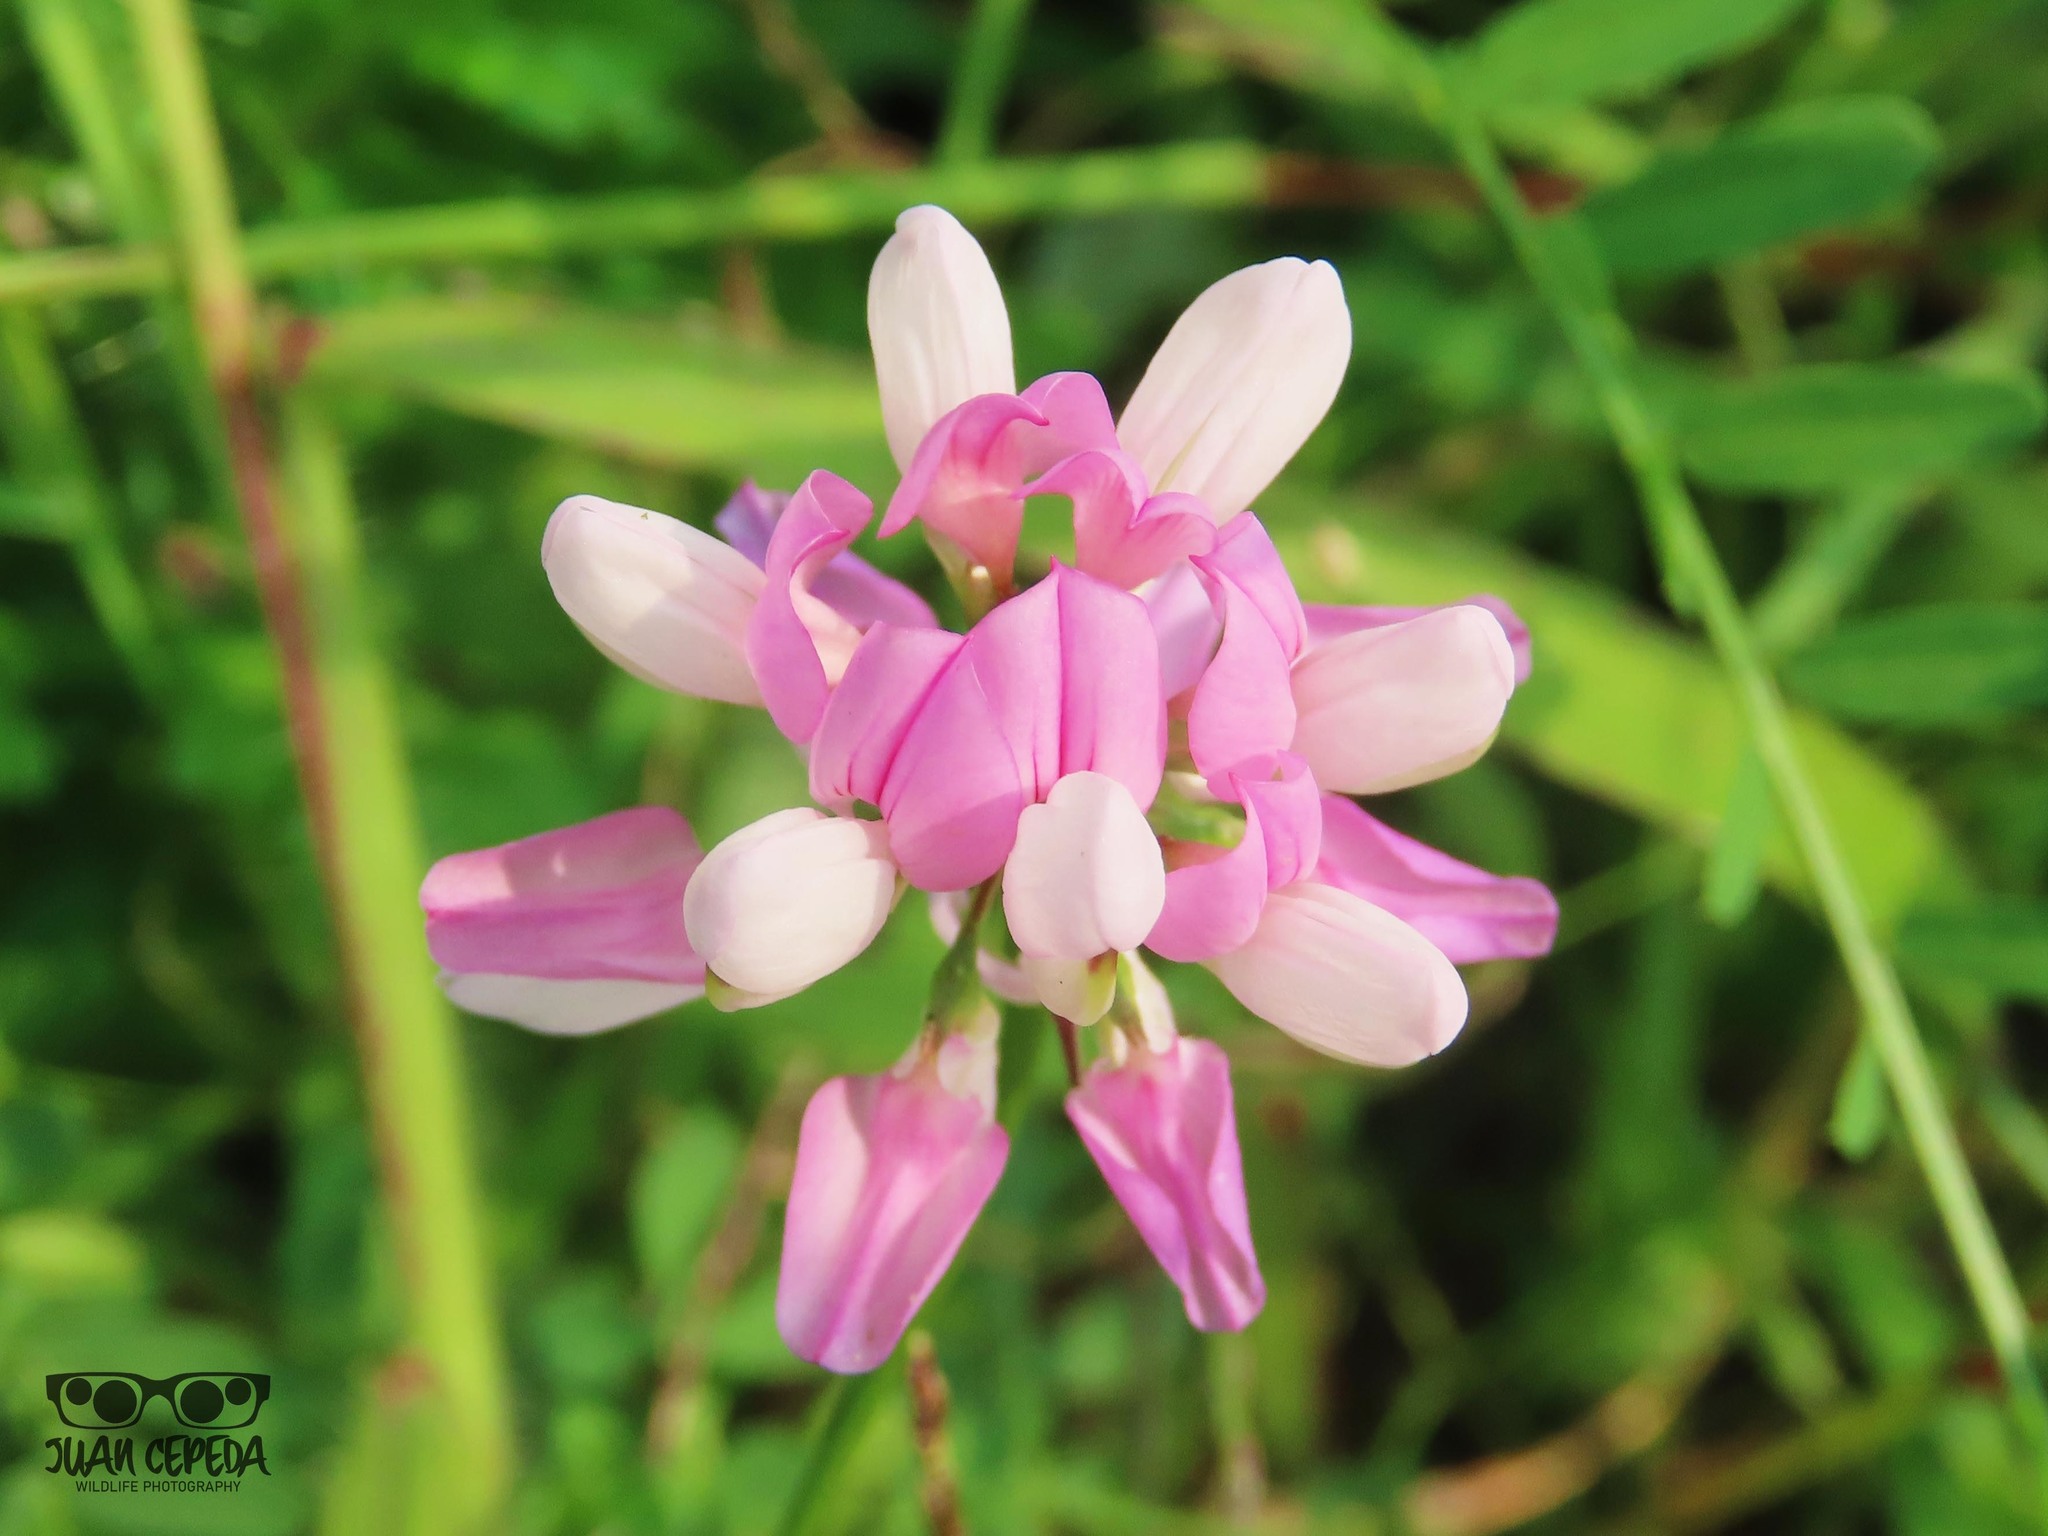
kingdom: Plantae
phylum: Tracheophyta
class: Magnoliopsida
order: Fabales
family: Fabaceae
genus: Coronilla
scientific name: Coronilla varia
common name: Crownvetch
